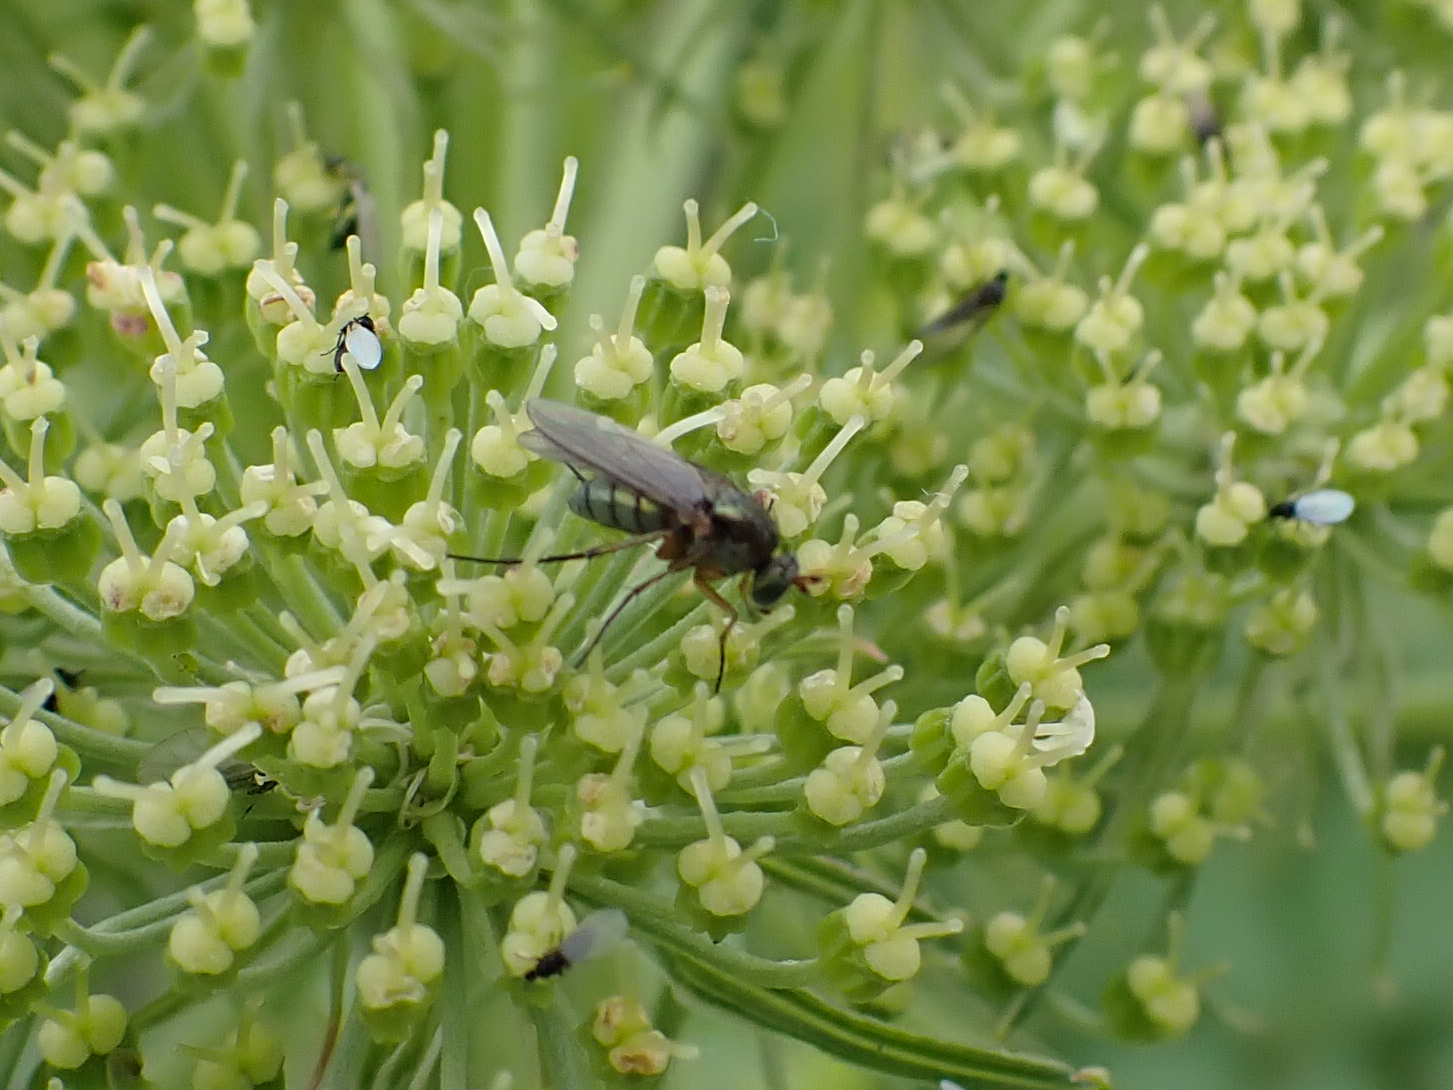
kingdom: Animalia
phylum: Arthropoda
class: Insecta
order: Diptera
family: Dolichopodidae
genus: Dolichopus
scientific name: Dolichopus
